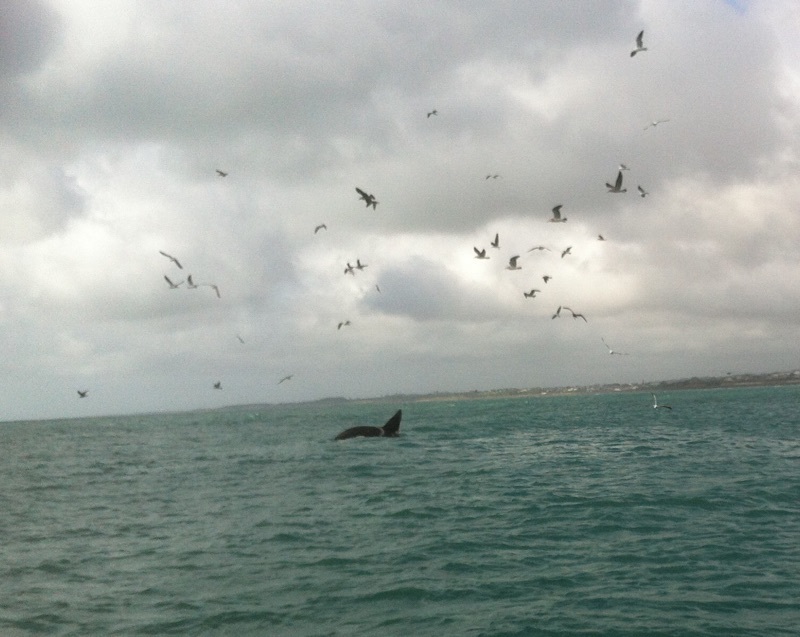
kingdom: Animalia
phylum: Chordata
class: Mammalia
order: Cetacea
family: Delphinidae
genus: Orcinus
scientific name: Orcinus orca
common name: Killer whale
